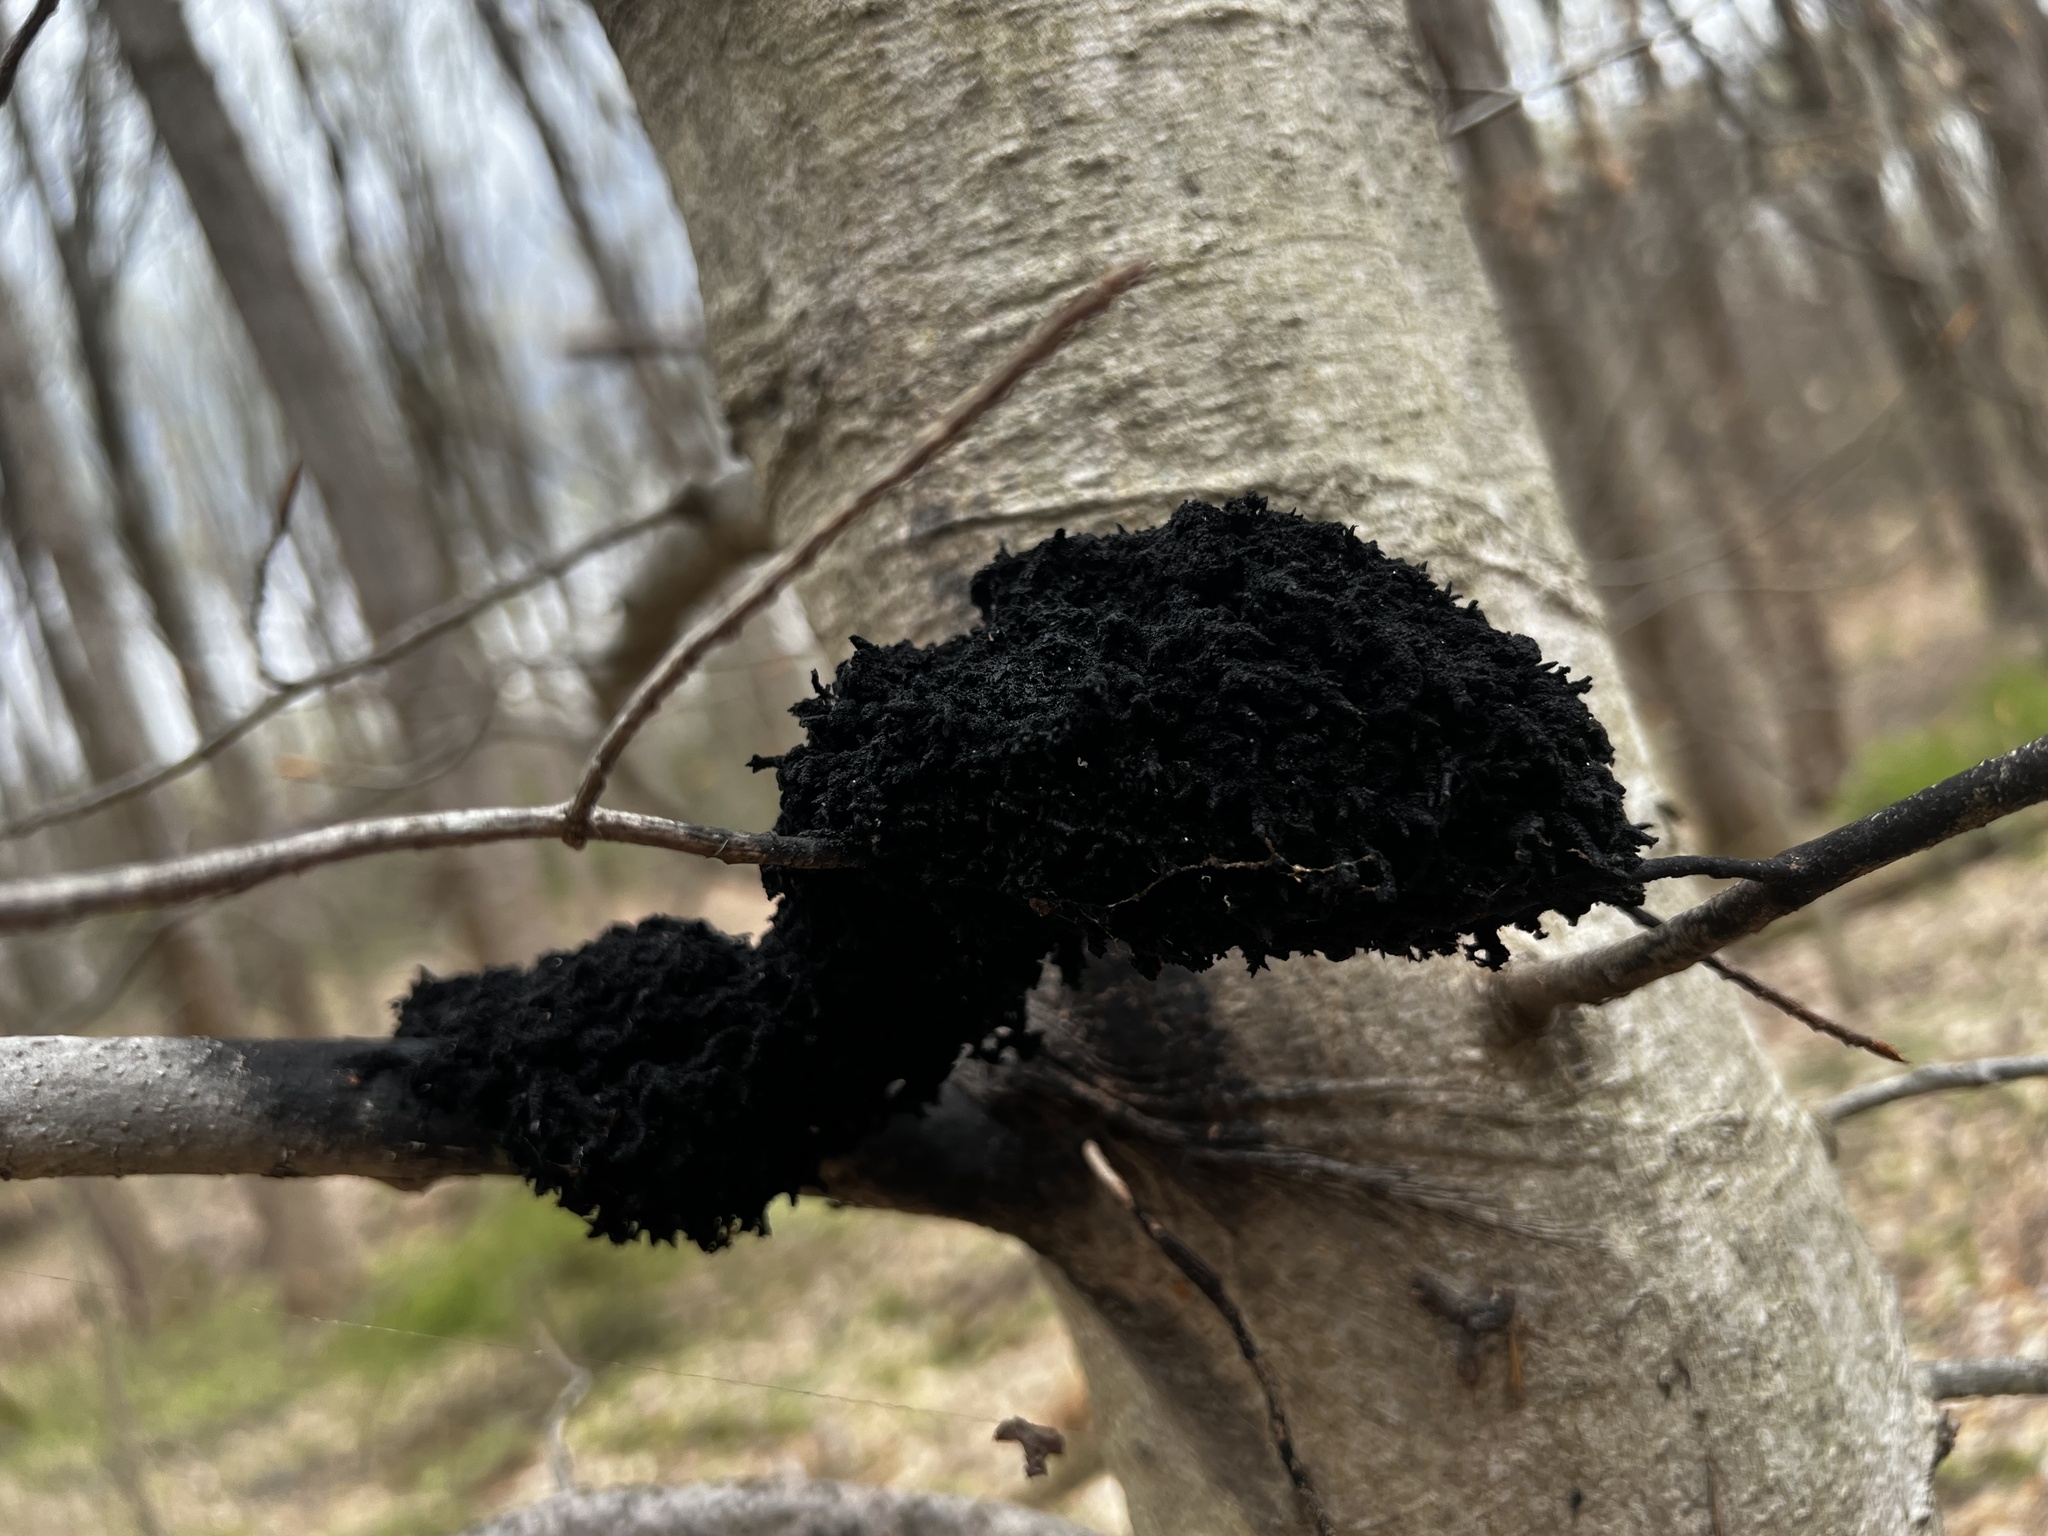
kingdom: Fungi
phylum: Ascomycota
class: Dothideomycetes
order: Capnodiales
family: Capnodiaceae
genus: Scorias
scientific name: Scorias spongiosa
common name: Black sooty mold
